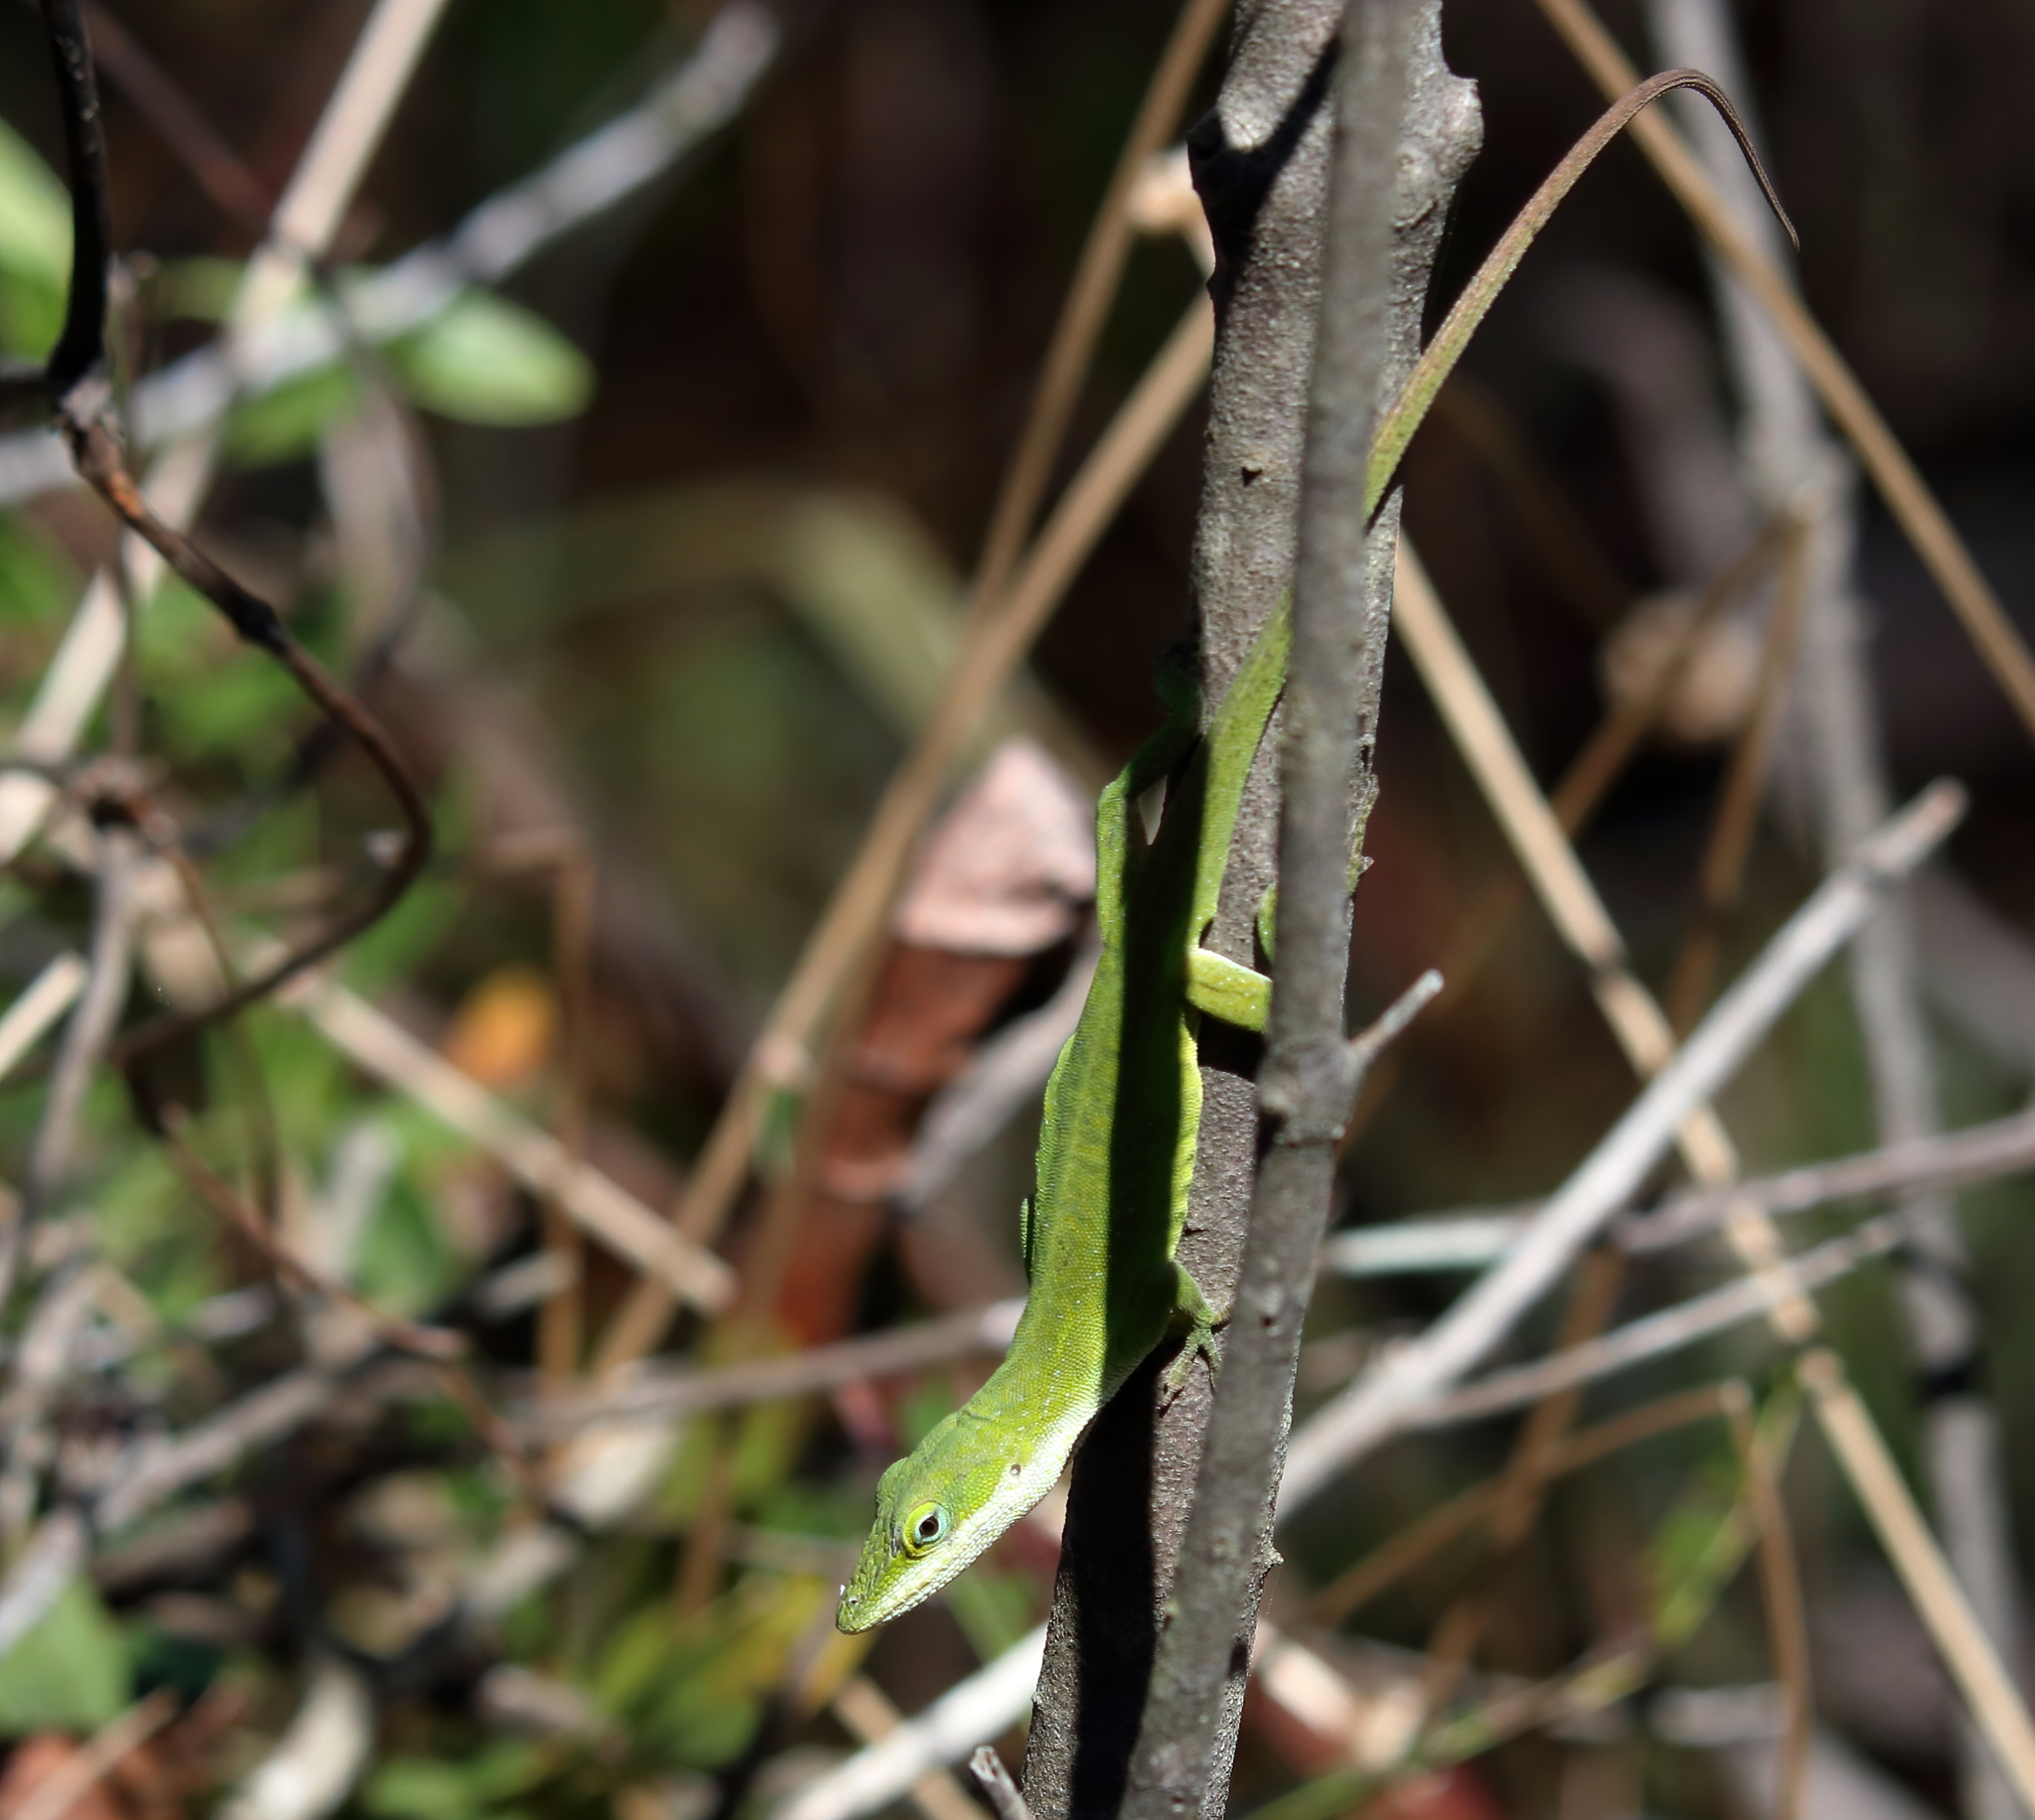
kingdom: Animalia
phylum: Chordata
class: Squamata
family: Dactyloidae
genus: Anolis
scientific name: Anolis carolinensis
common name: Green anole
